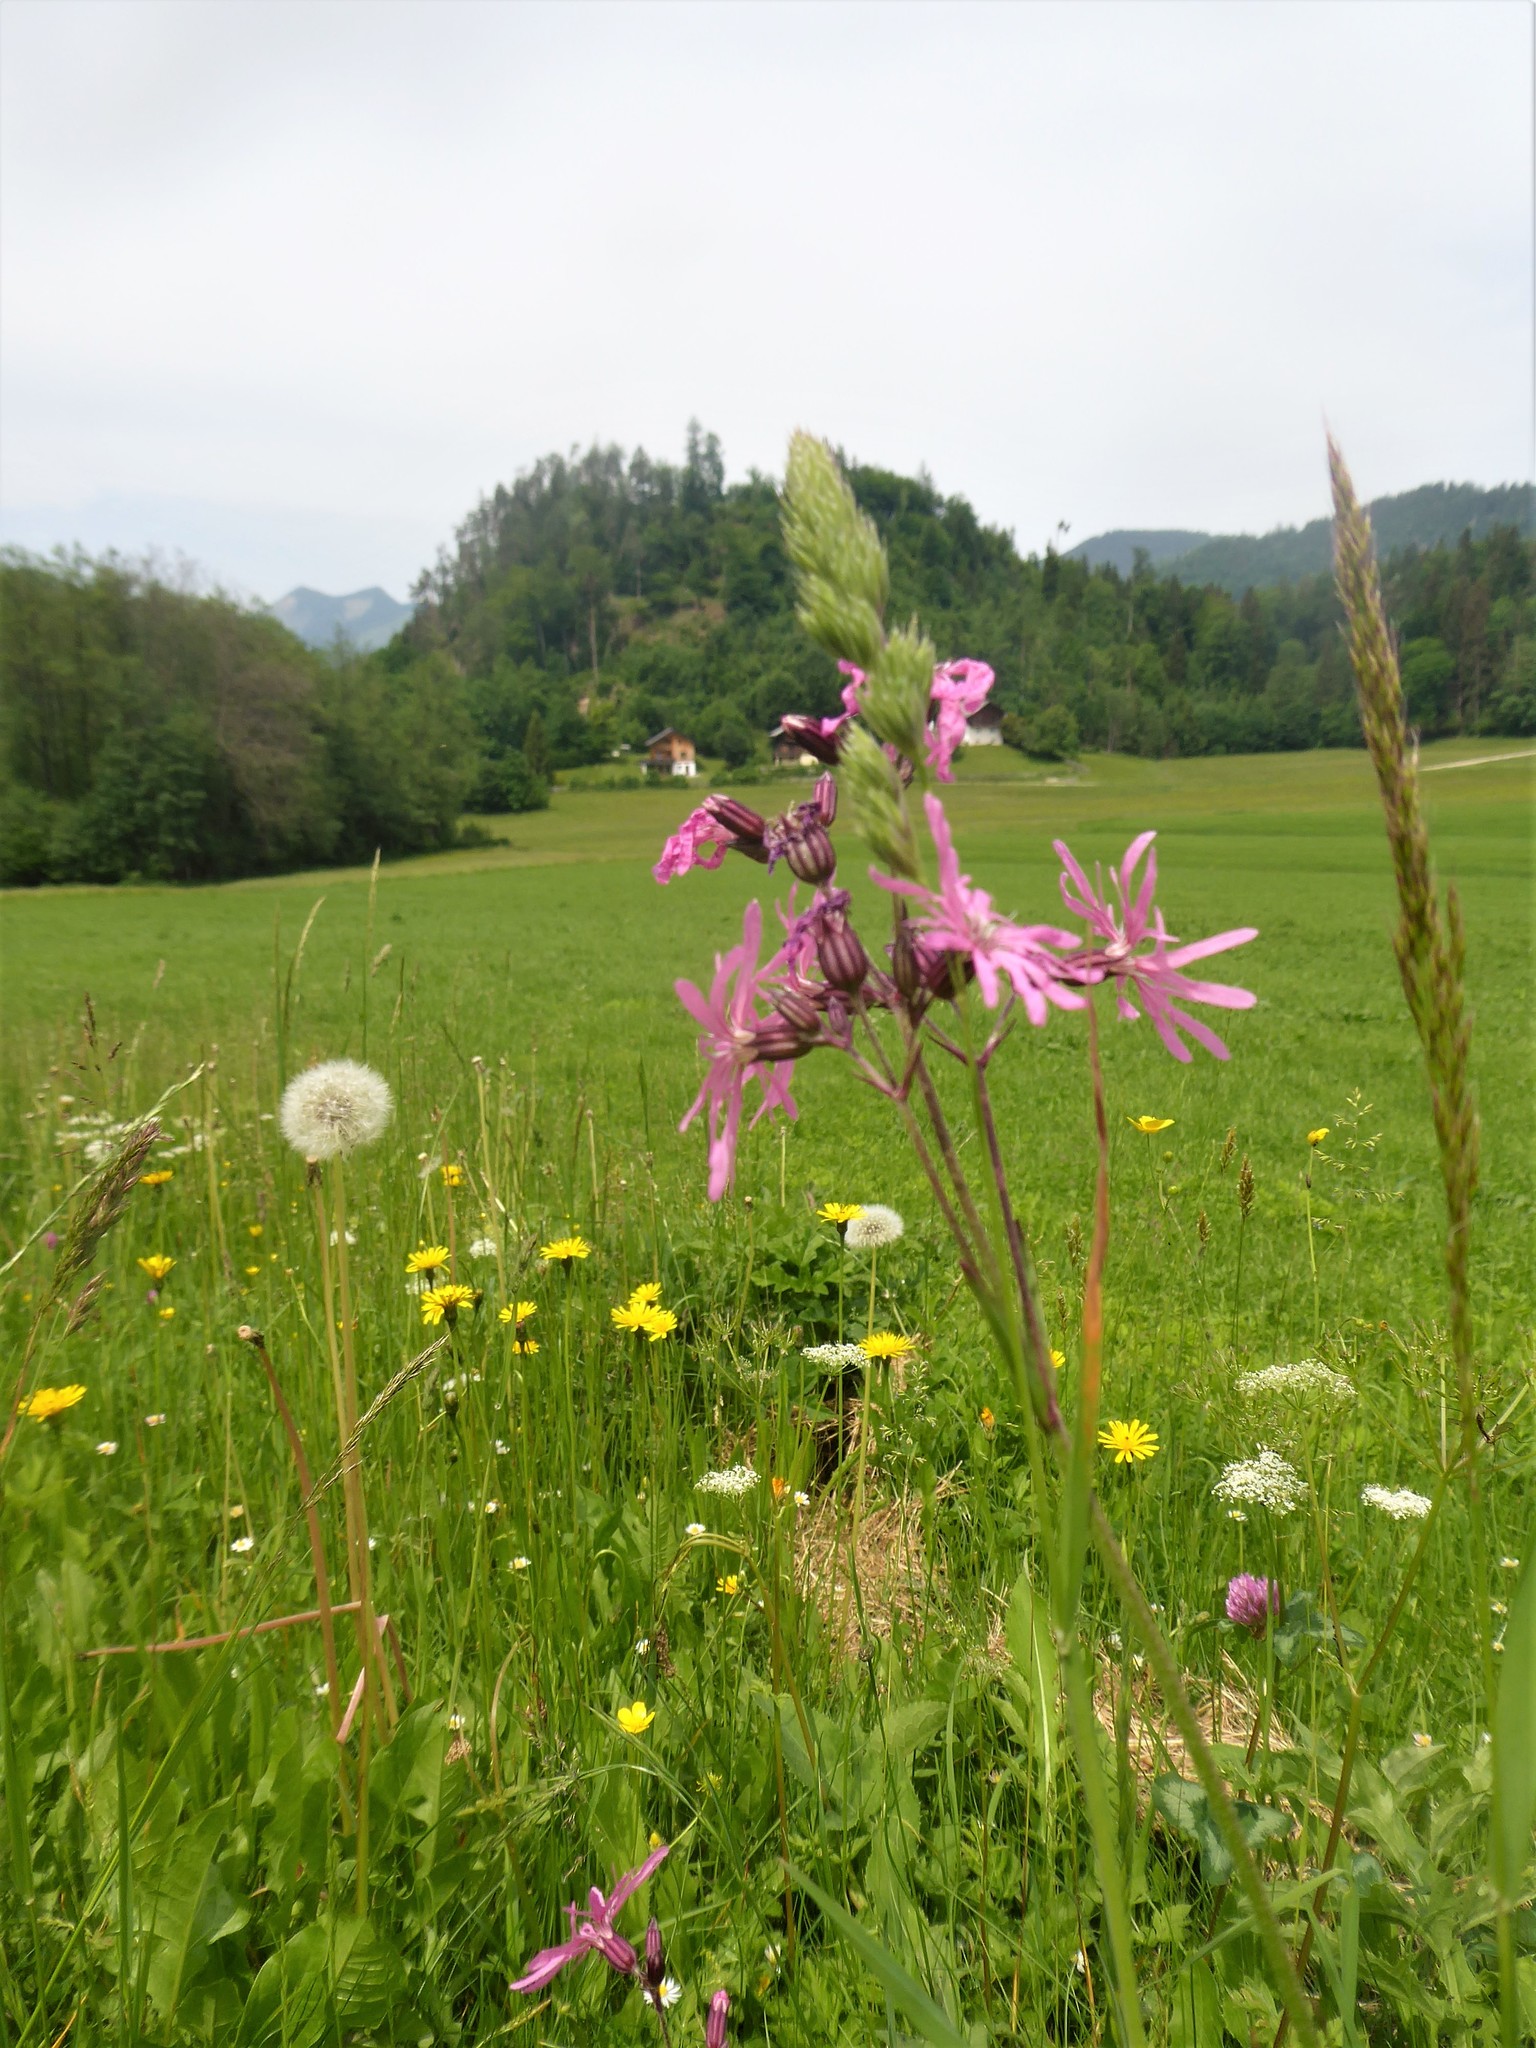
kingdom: Plantae
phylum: Tracheophyta
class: Magnoliopsida
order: Caryophyllales
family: Caryophyllaceae
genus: Silene
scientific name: Silene flos-cuculi
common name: Ragged-robin
